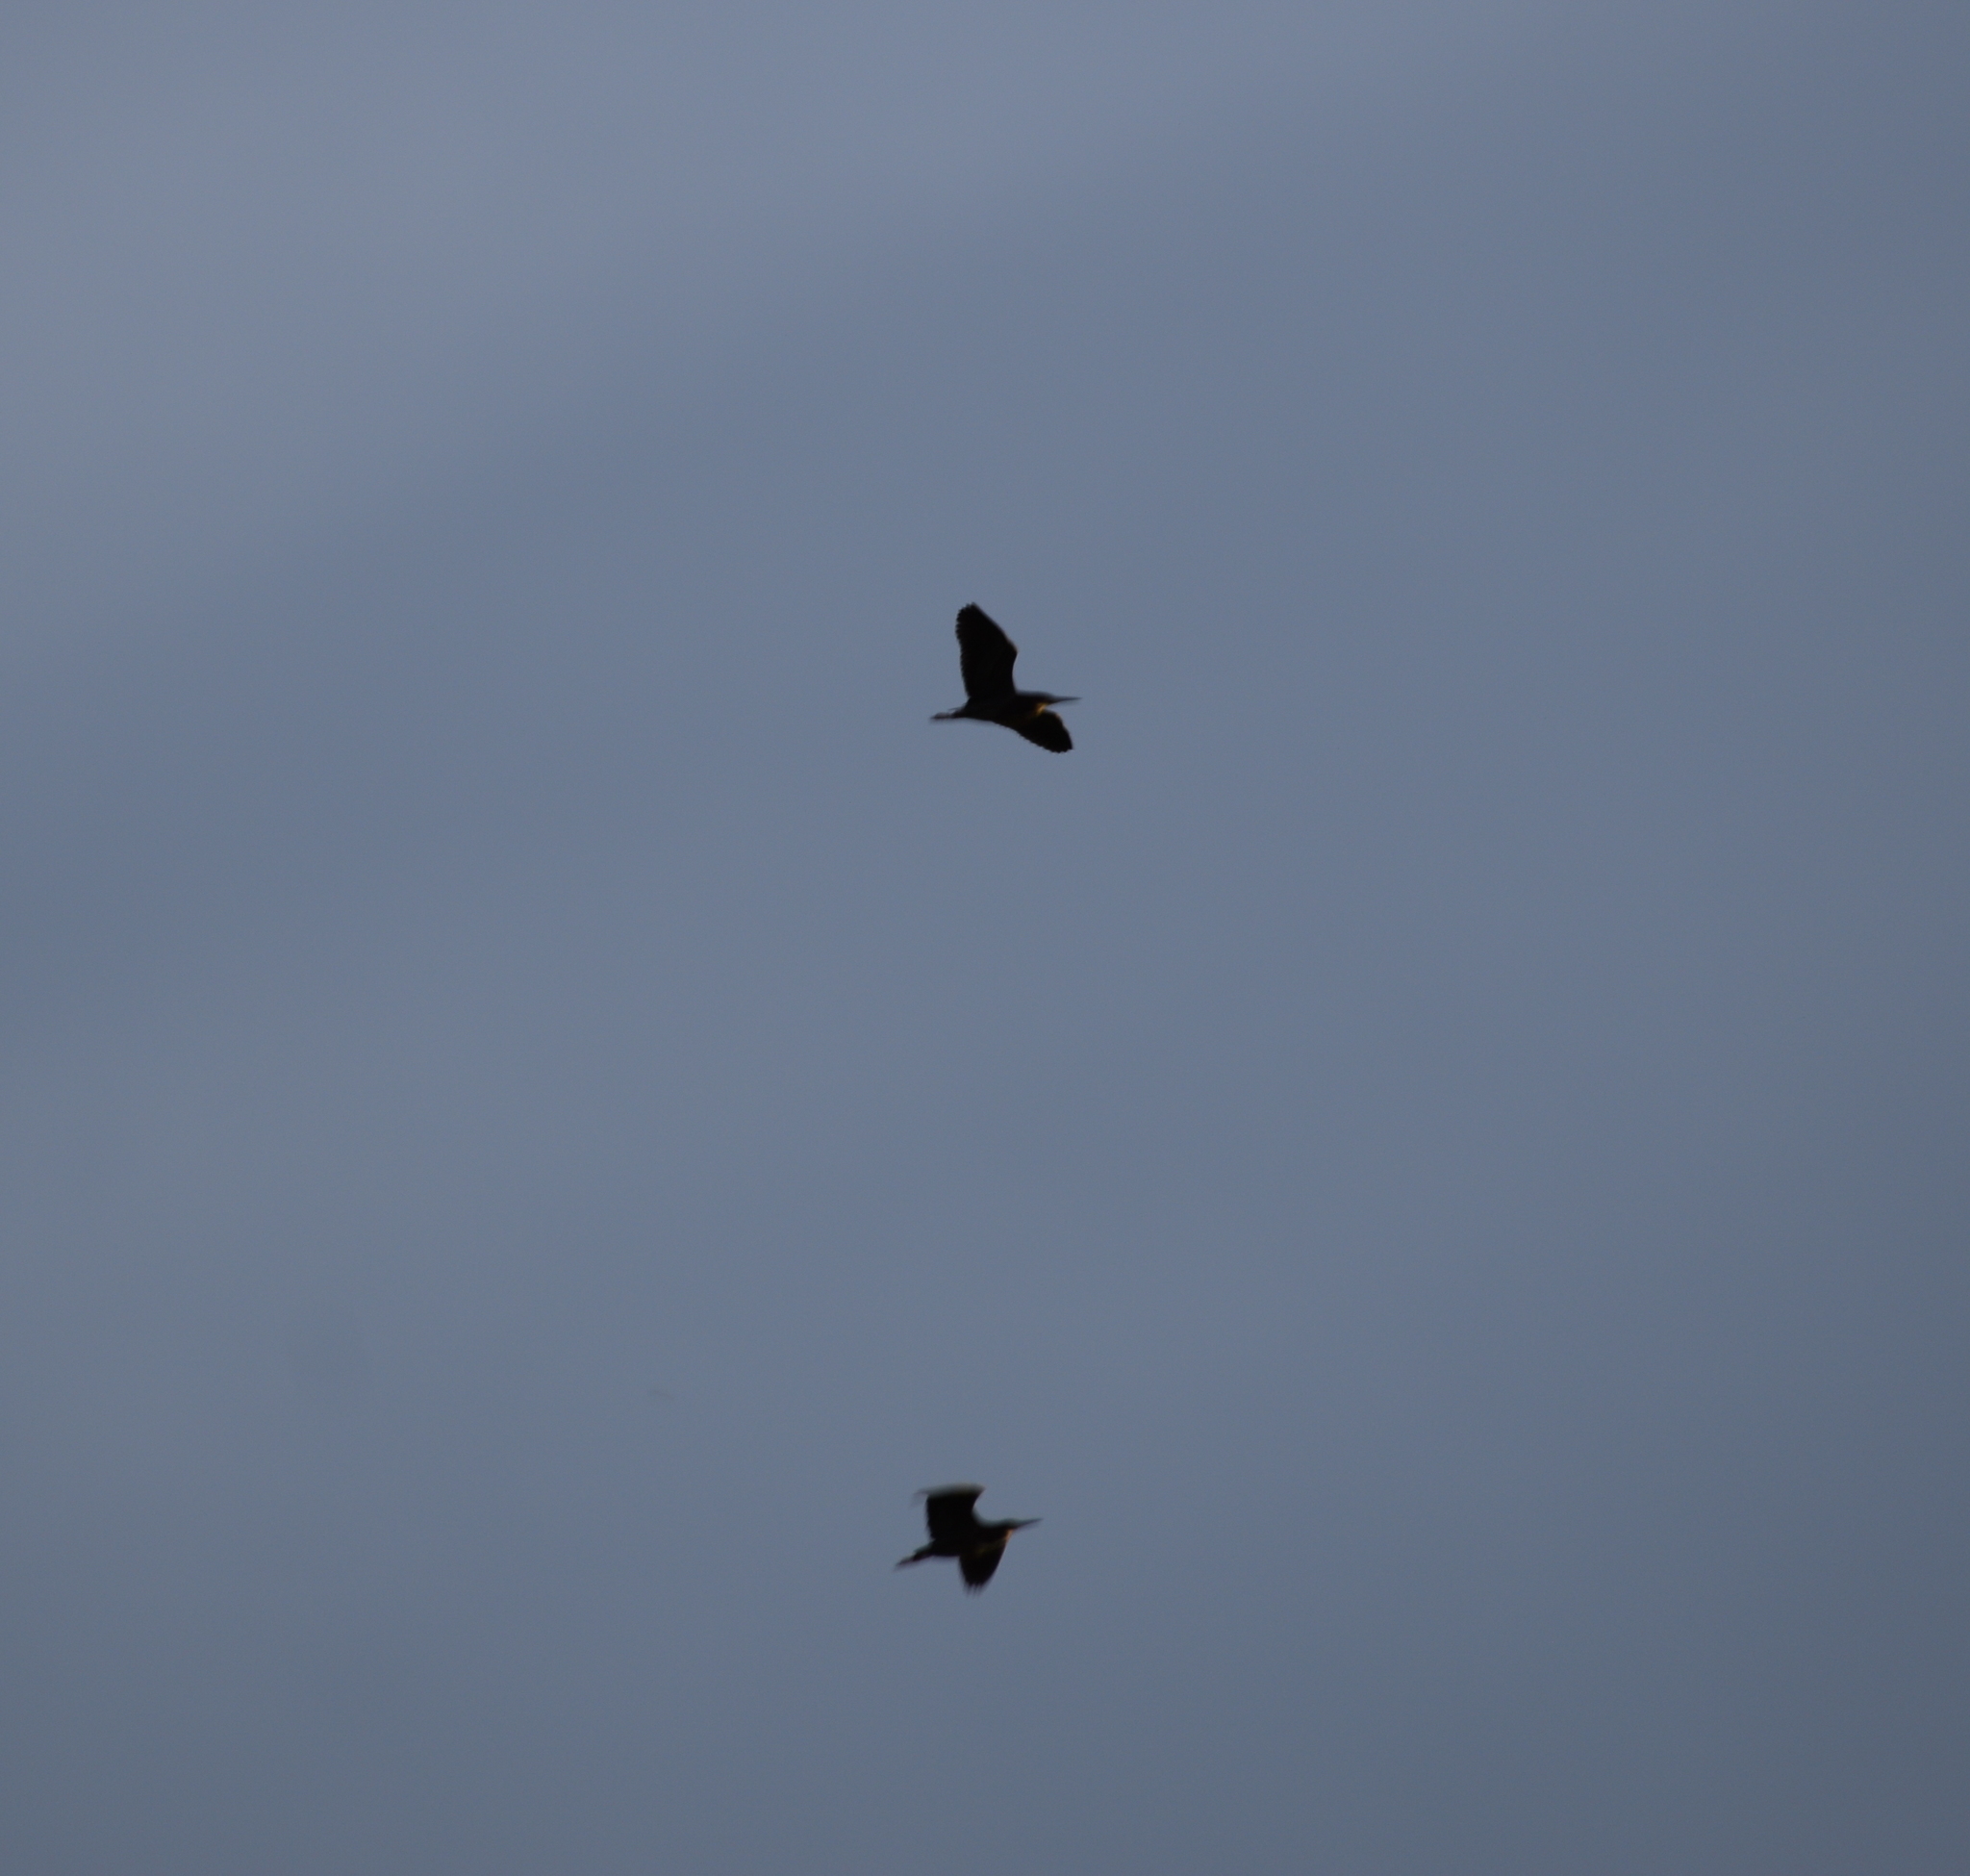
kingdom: Animalia
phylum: Chordata
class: Aves
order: Pelecaniformes
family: Ardeidae
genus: Butorides
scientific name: Butorides virescens
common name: Green heron
